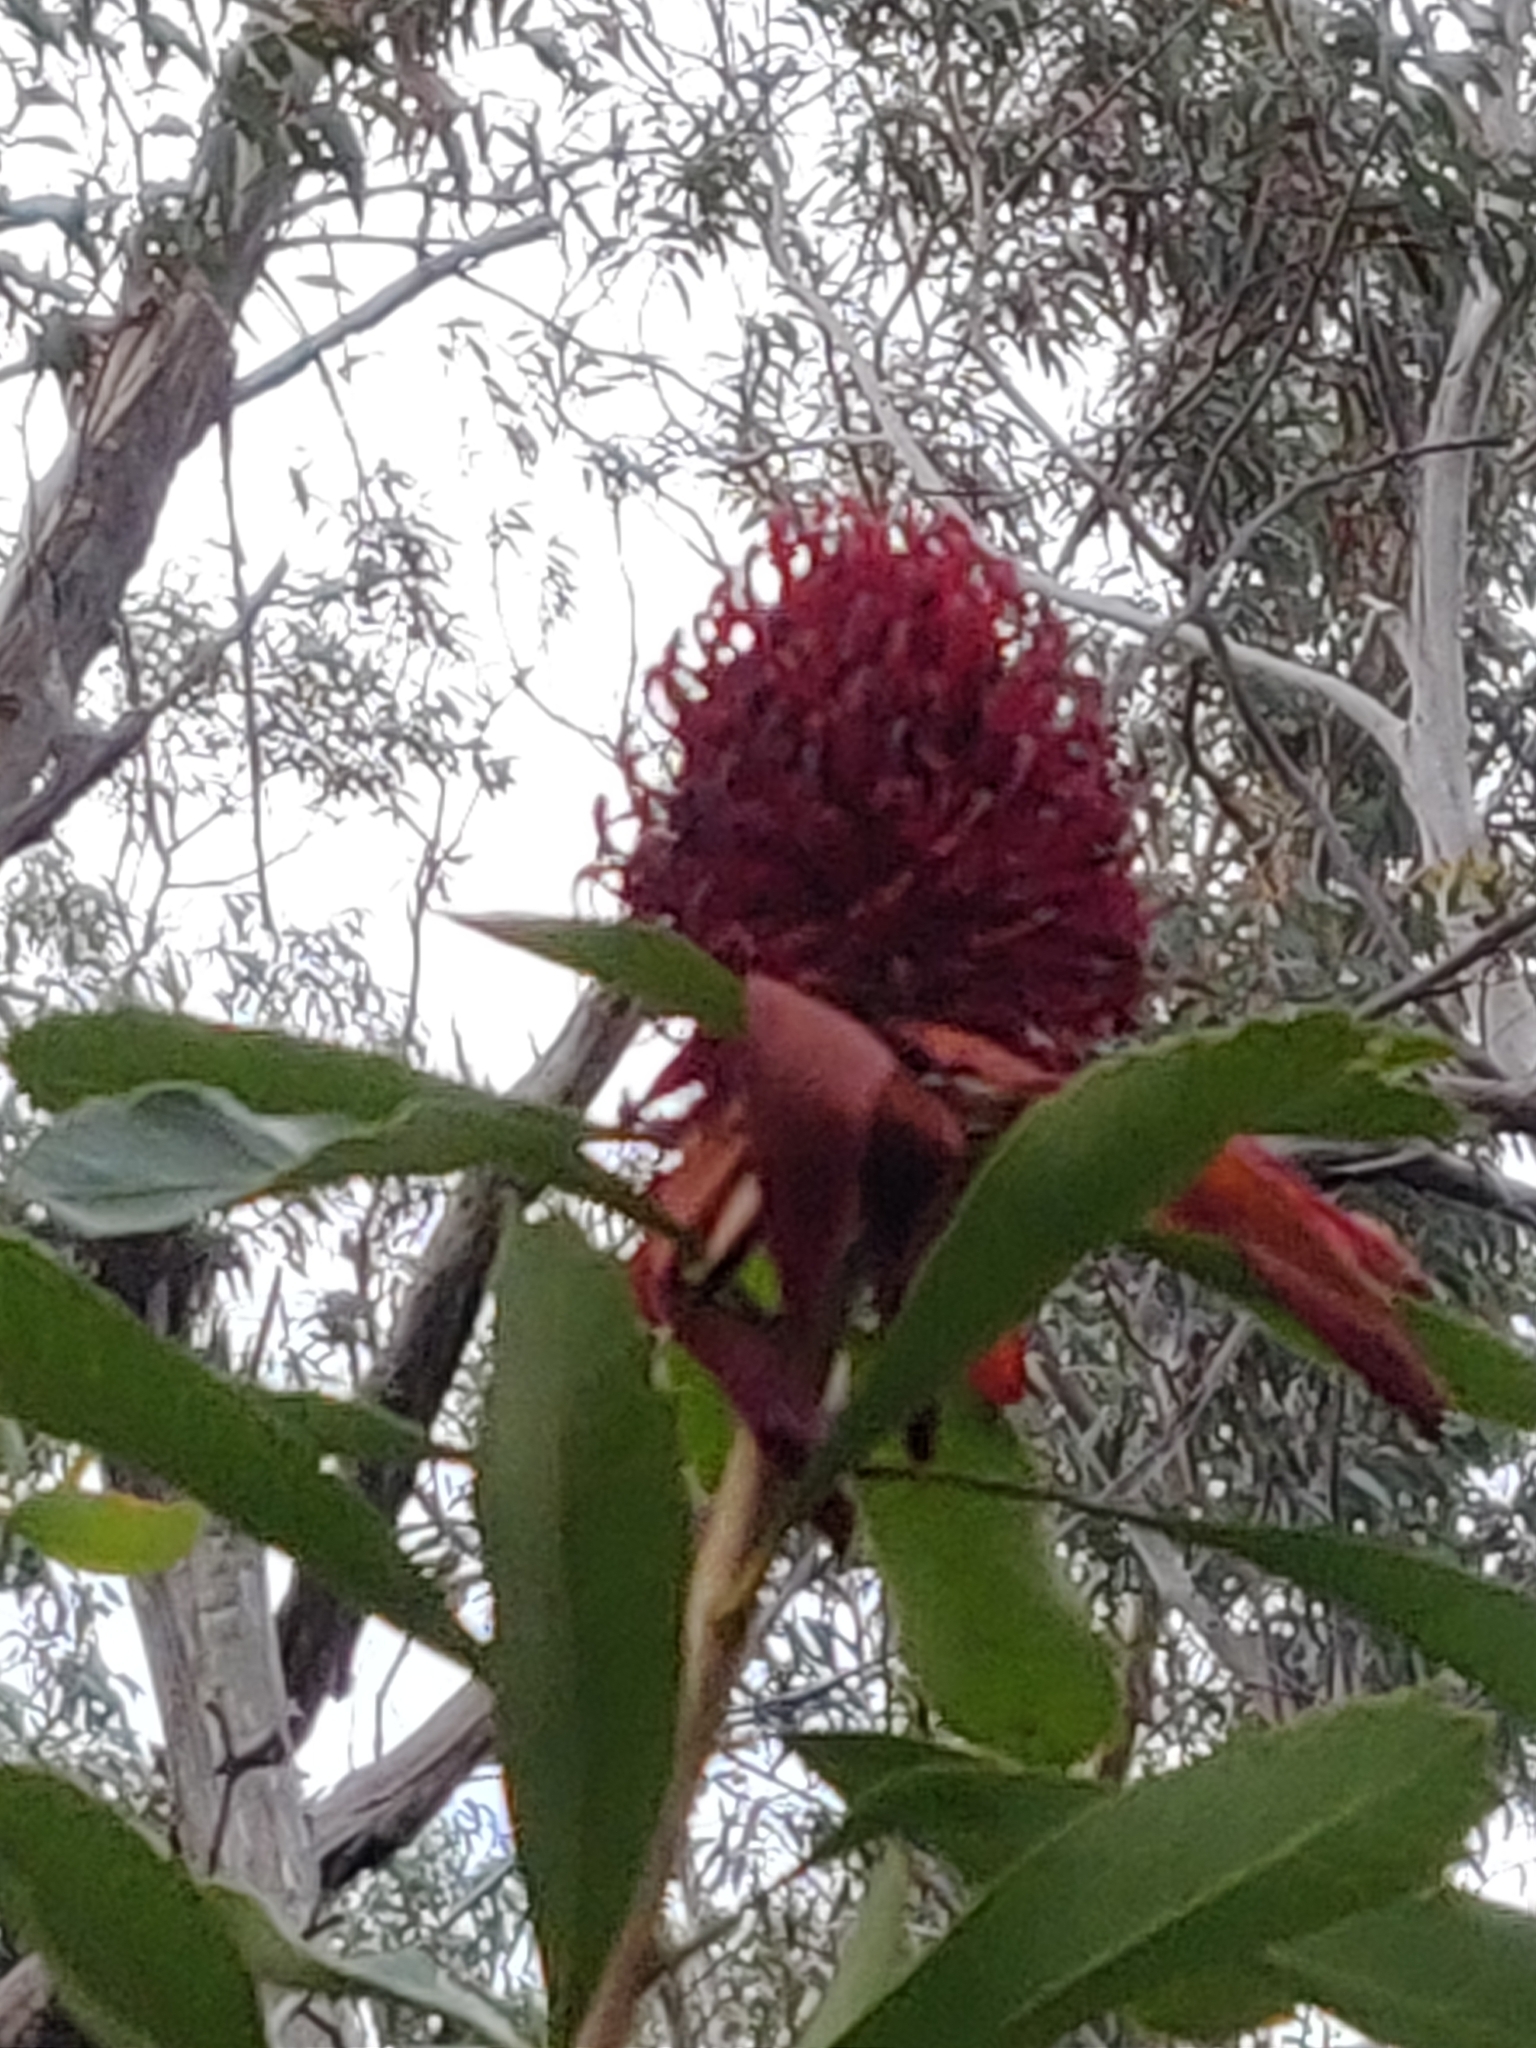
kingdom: Plantae
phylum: Tracheophyta
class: Magnoliopsida
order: Proteales
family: Proteaceae
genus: Telopea
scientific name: Telopea speciosissima
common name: New south wales waratah
